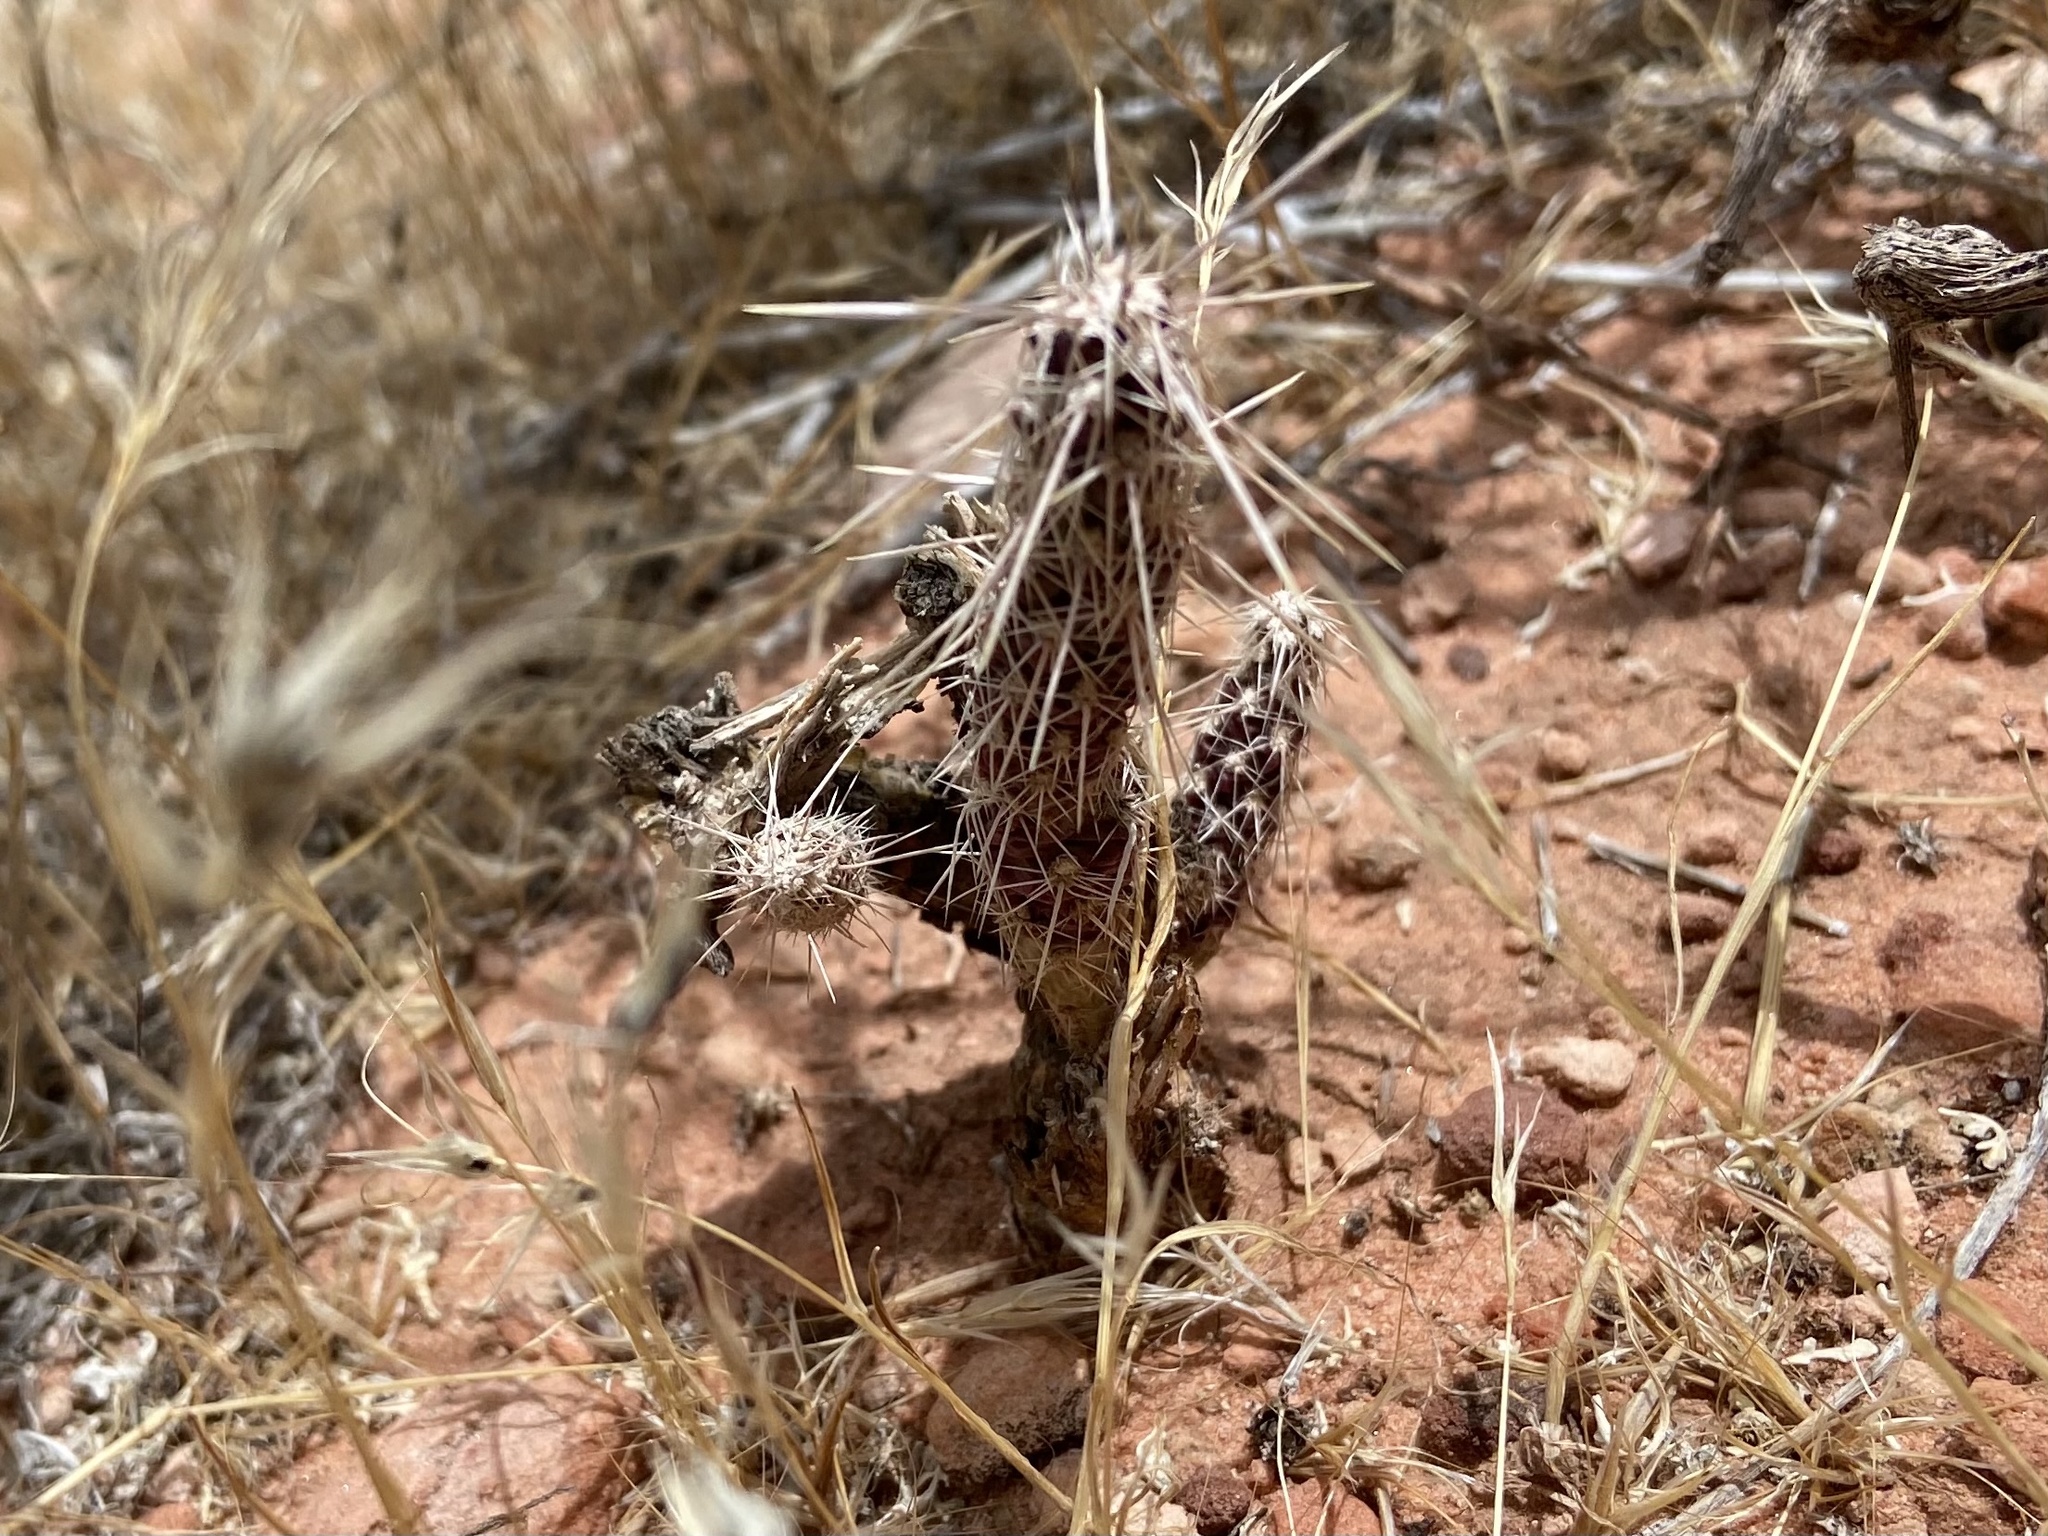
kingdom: Plantae
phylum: Tracheophyta
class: Magnoliopsida
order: Caryophyllales
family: Cactaceae
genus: Cylindropuntia
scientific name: Cylindropuntia echinocarpa
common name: Ground cholla
